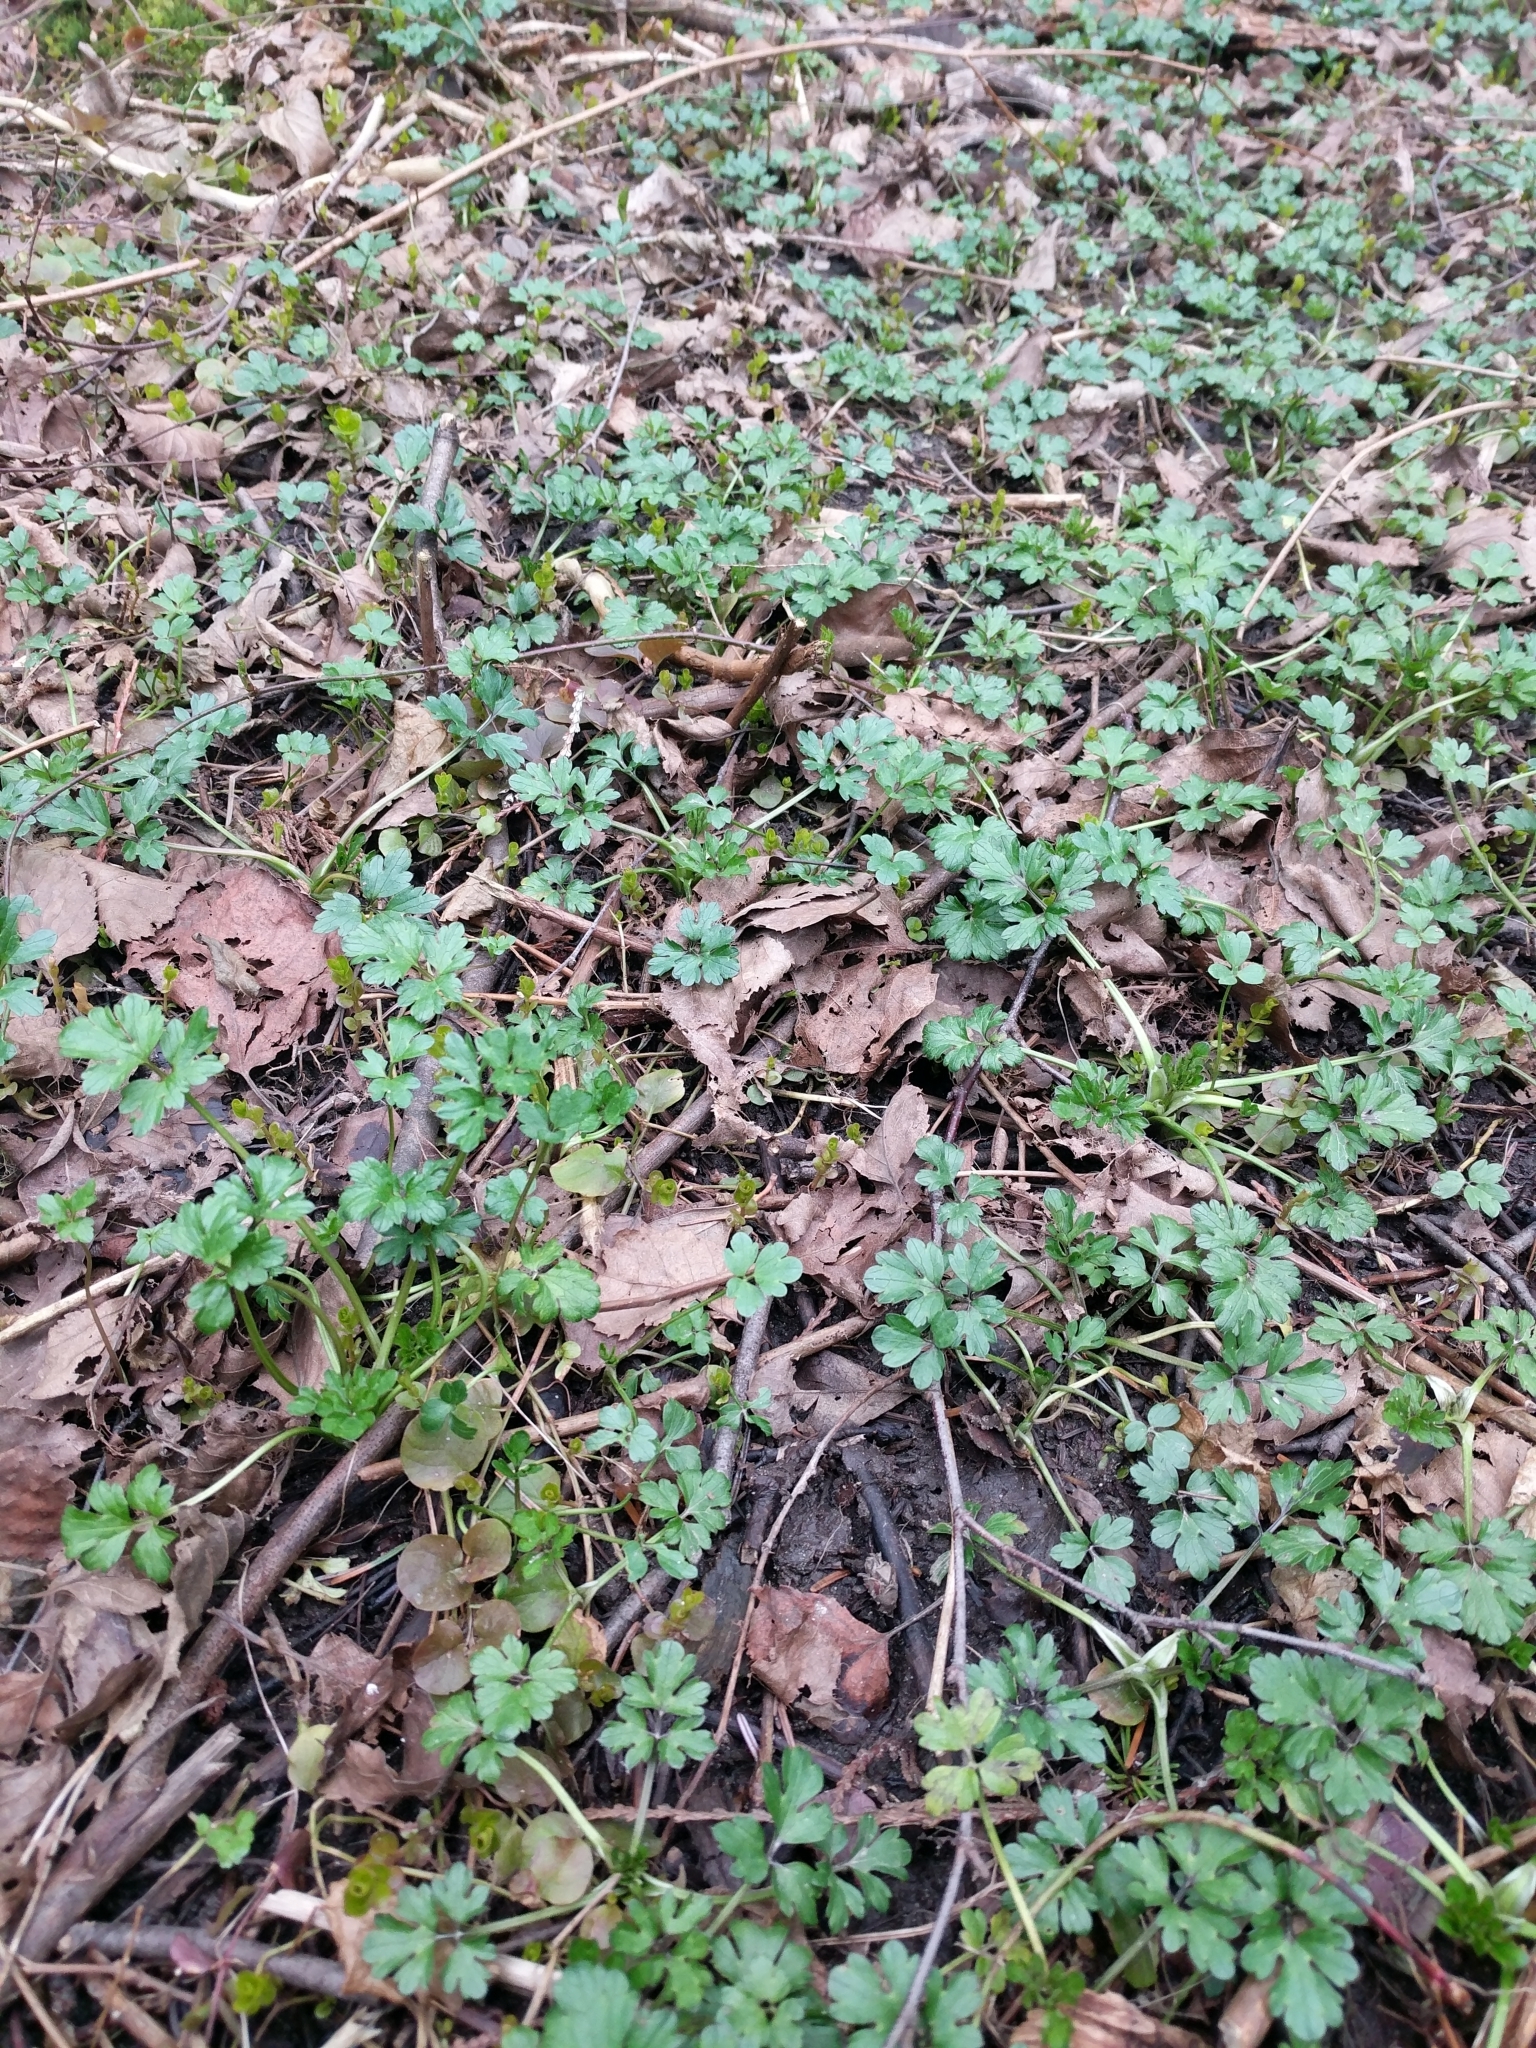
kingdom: Plantae
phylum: Tracheophyta
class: Magnoliopsida
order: Ranunculales
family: Ranunculaceae
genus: Ranunculus
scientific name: Ranunculus repens
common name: Creeping buttercup
